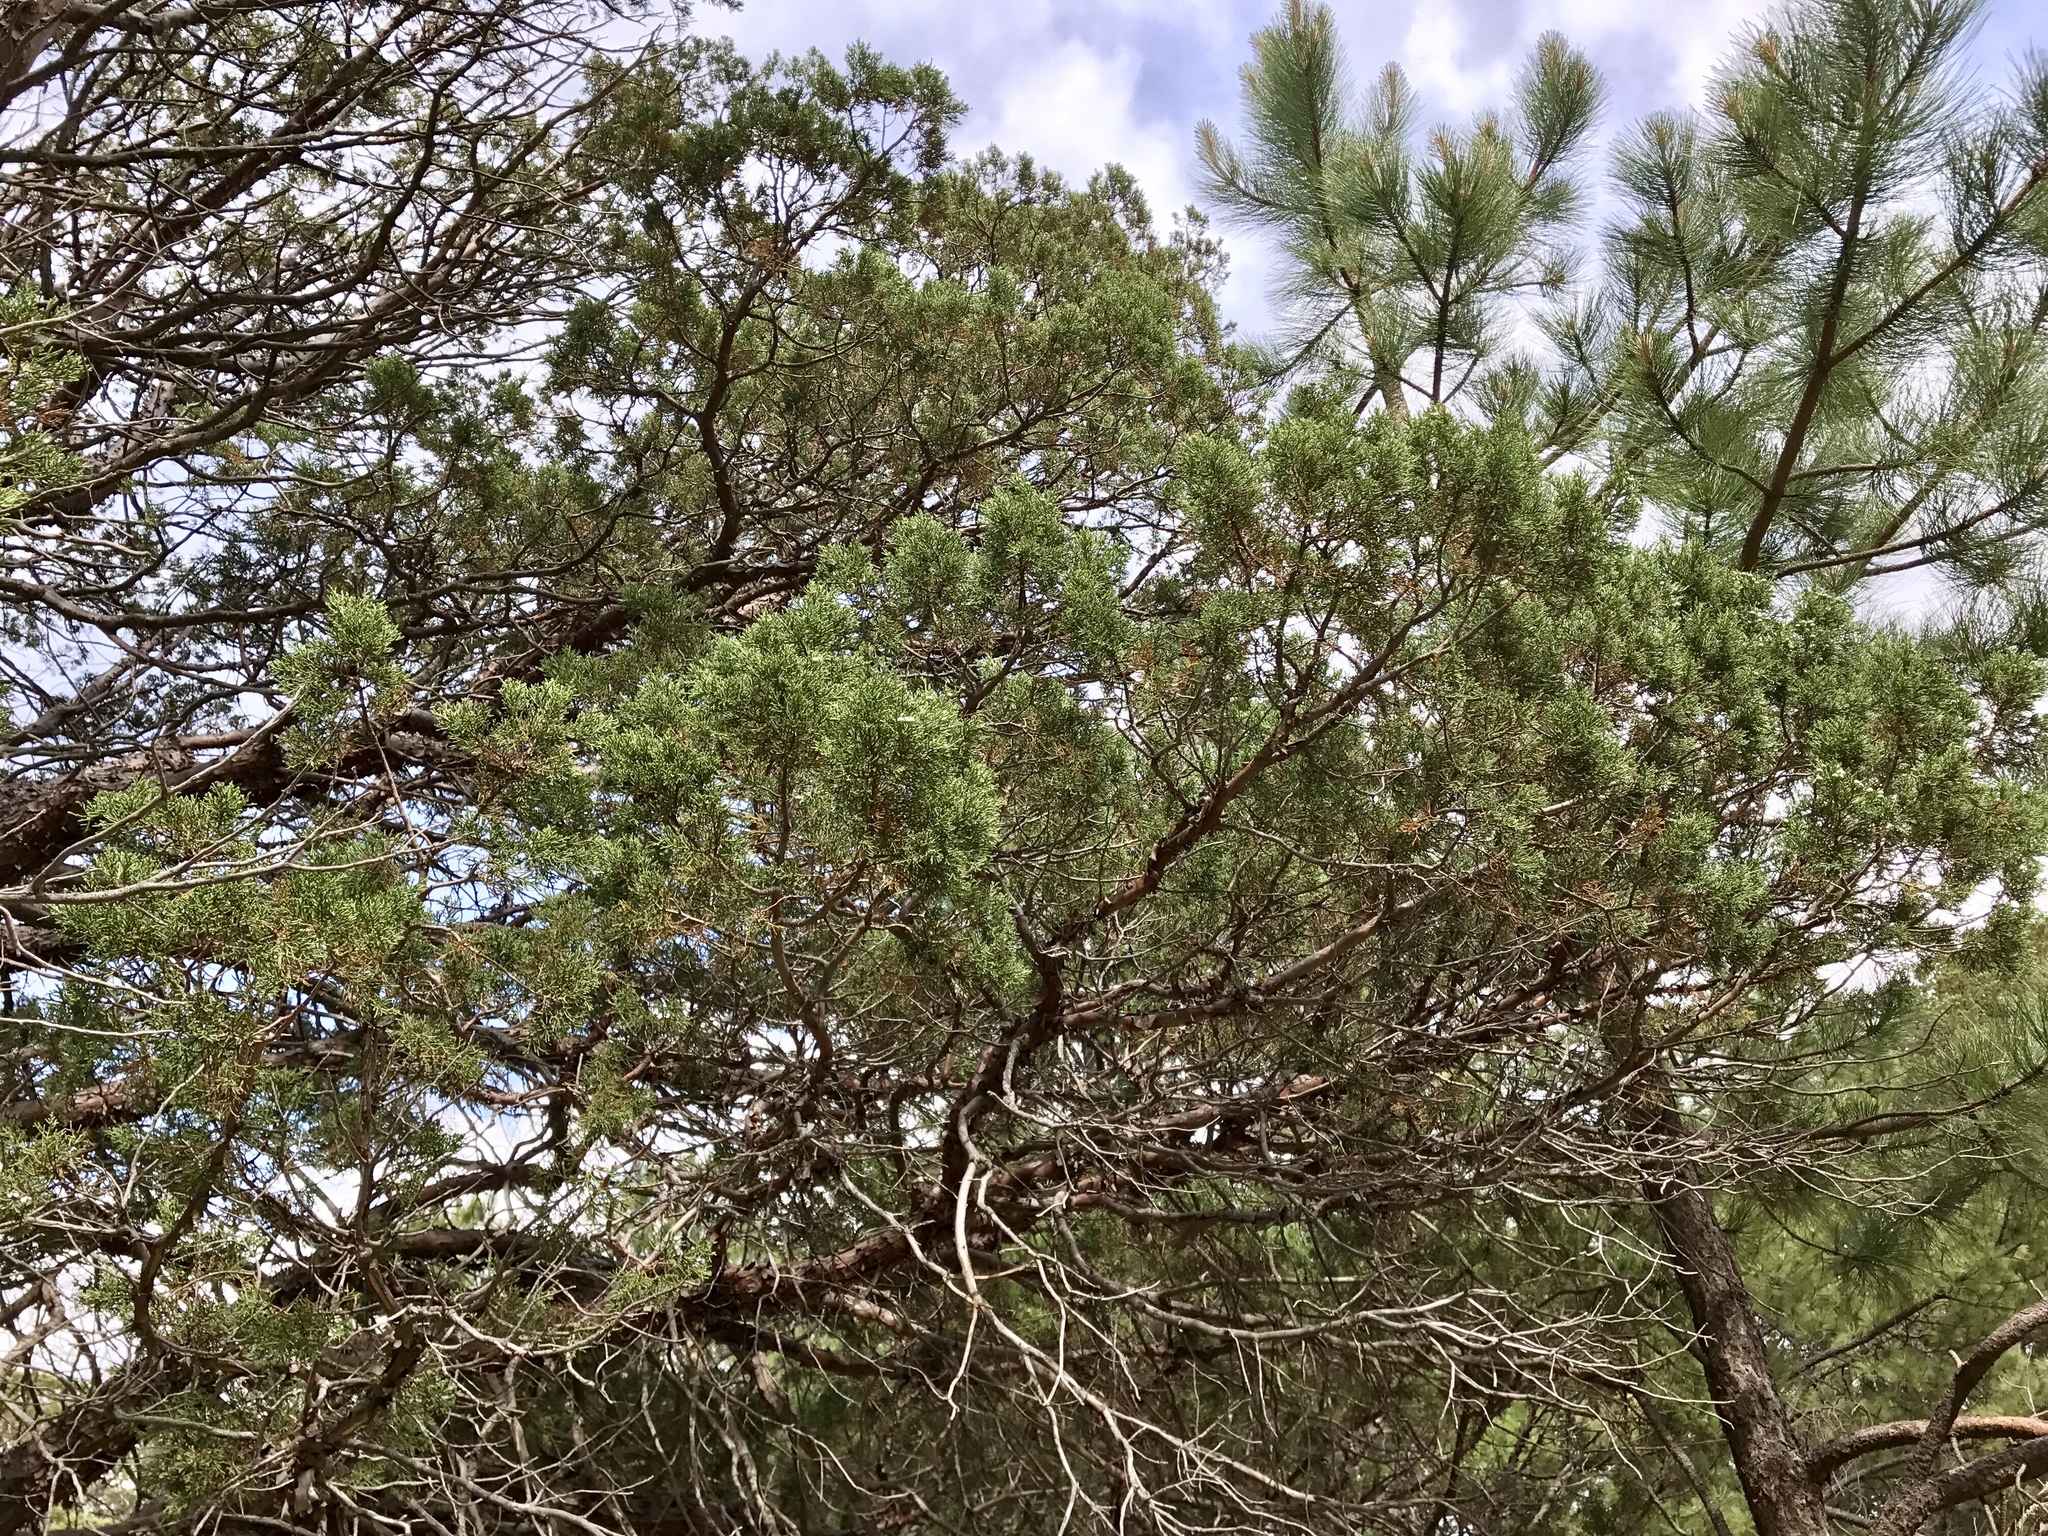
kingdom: Plantae
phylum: Tracheophyta
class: Pinopsida
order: Pinales
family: Cupressaceae
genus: Juniperus
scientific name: Juniperus deppeana
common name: Alligator juniper
